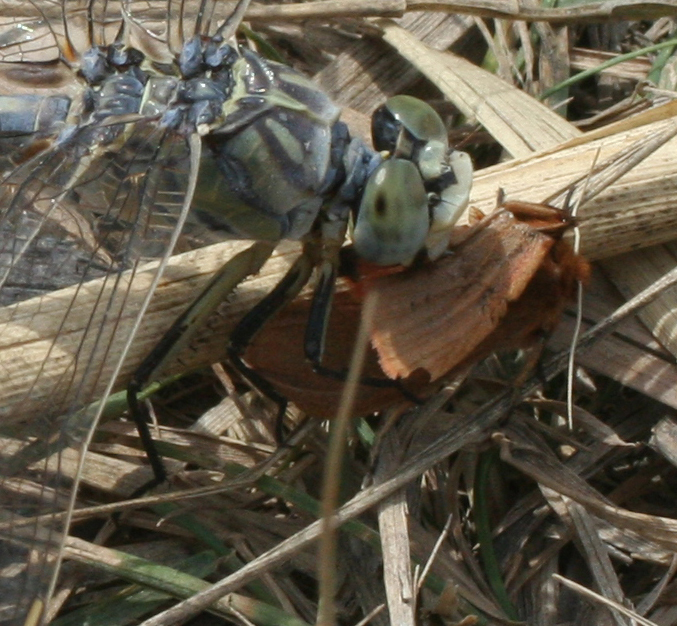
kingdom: Animalia
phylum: Arthropoda
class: Insecta
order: Lepidoptera
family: Erebidae
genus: Phragmatobia
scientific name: Phragmatobia fuliginosa
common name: Ruby tiger
